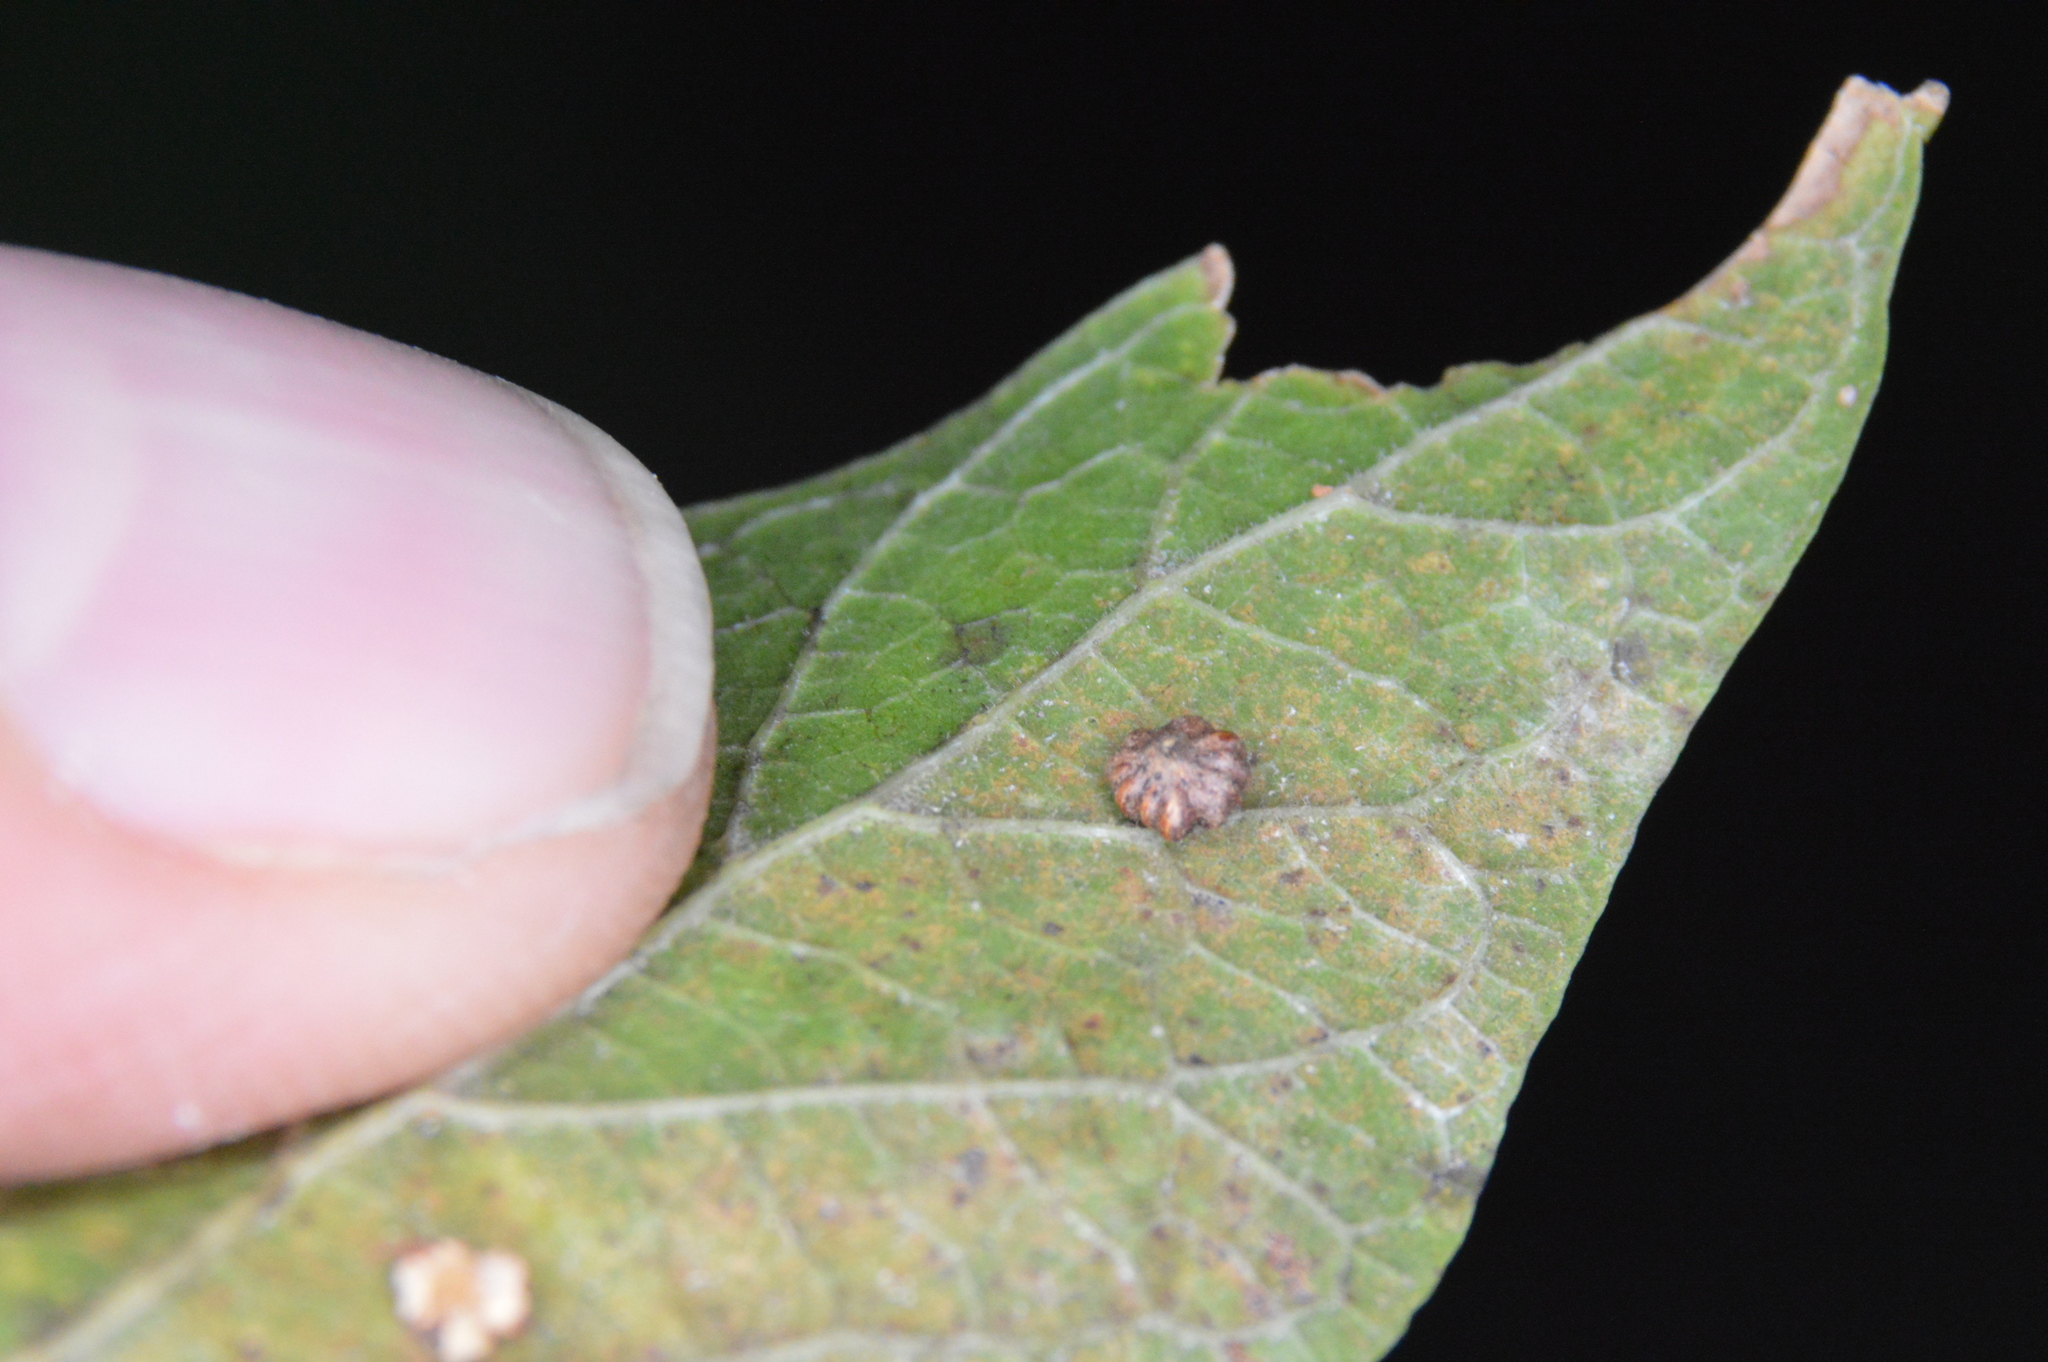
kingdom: Animalia
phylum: Arthropoda
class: Insecta
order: Diptera
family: Cecidomyiidae
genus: Celticecis
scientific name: Celticecis capsularis
